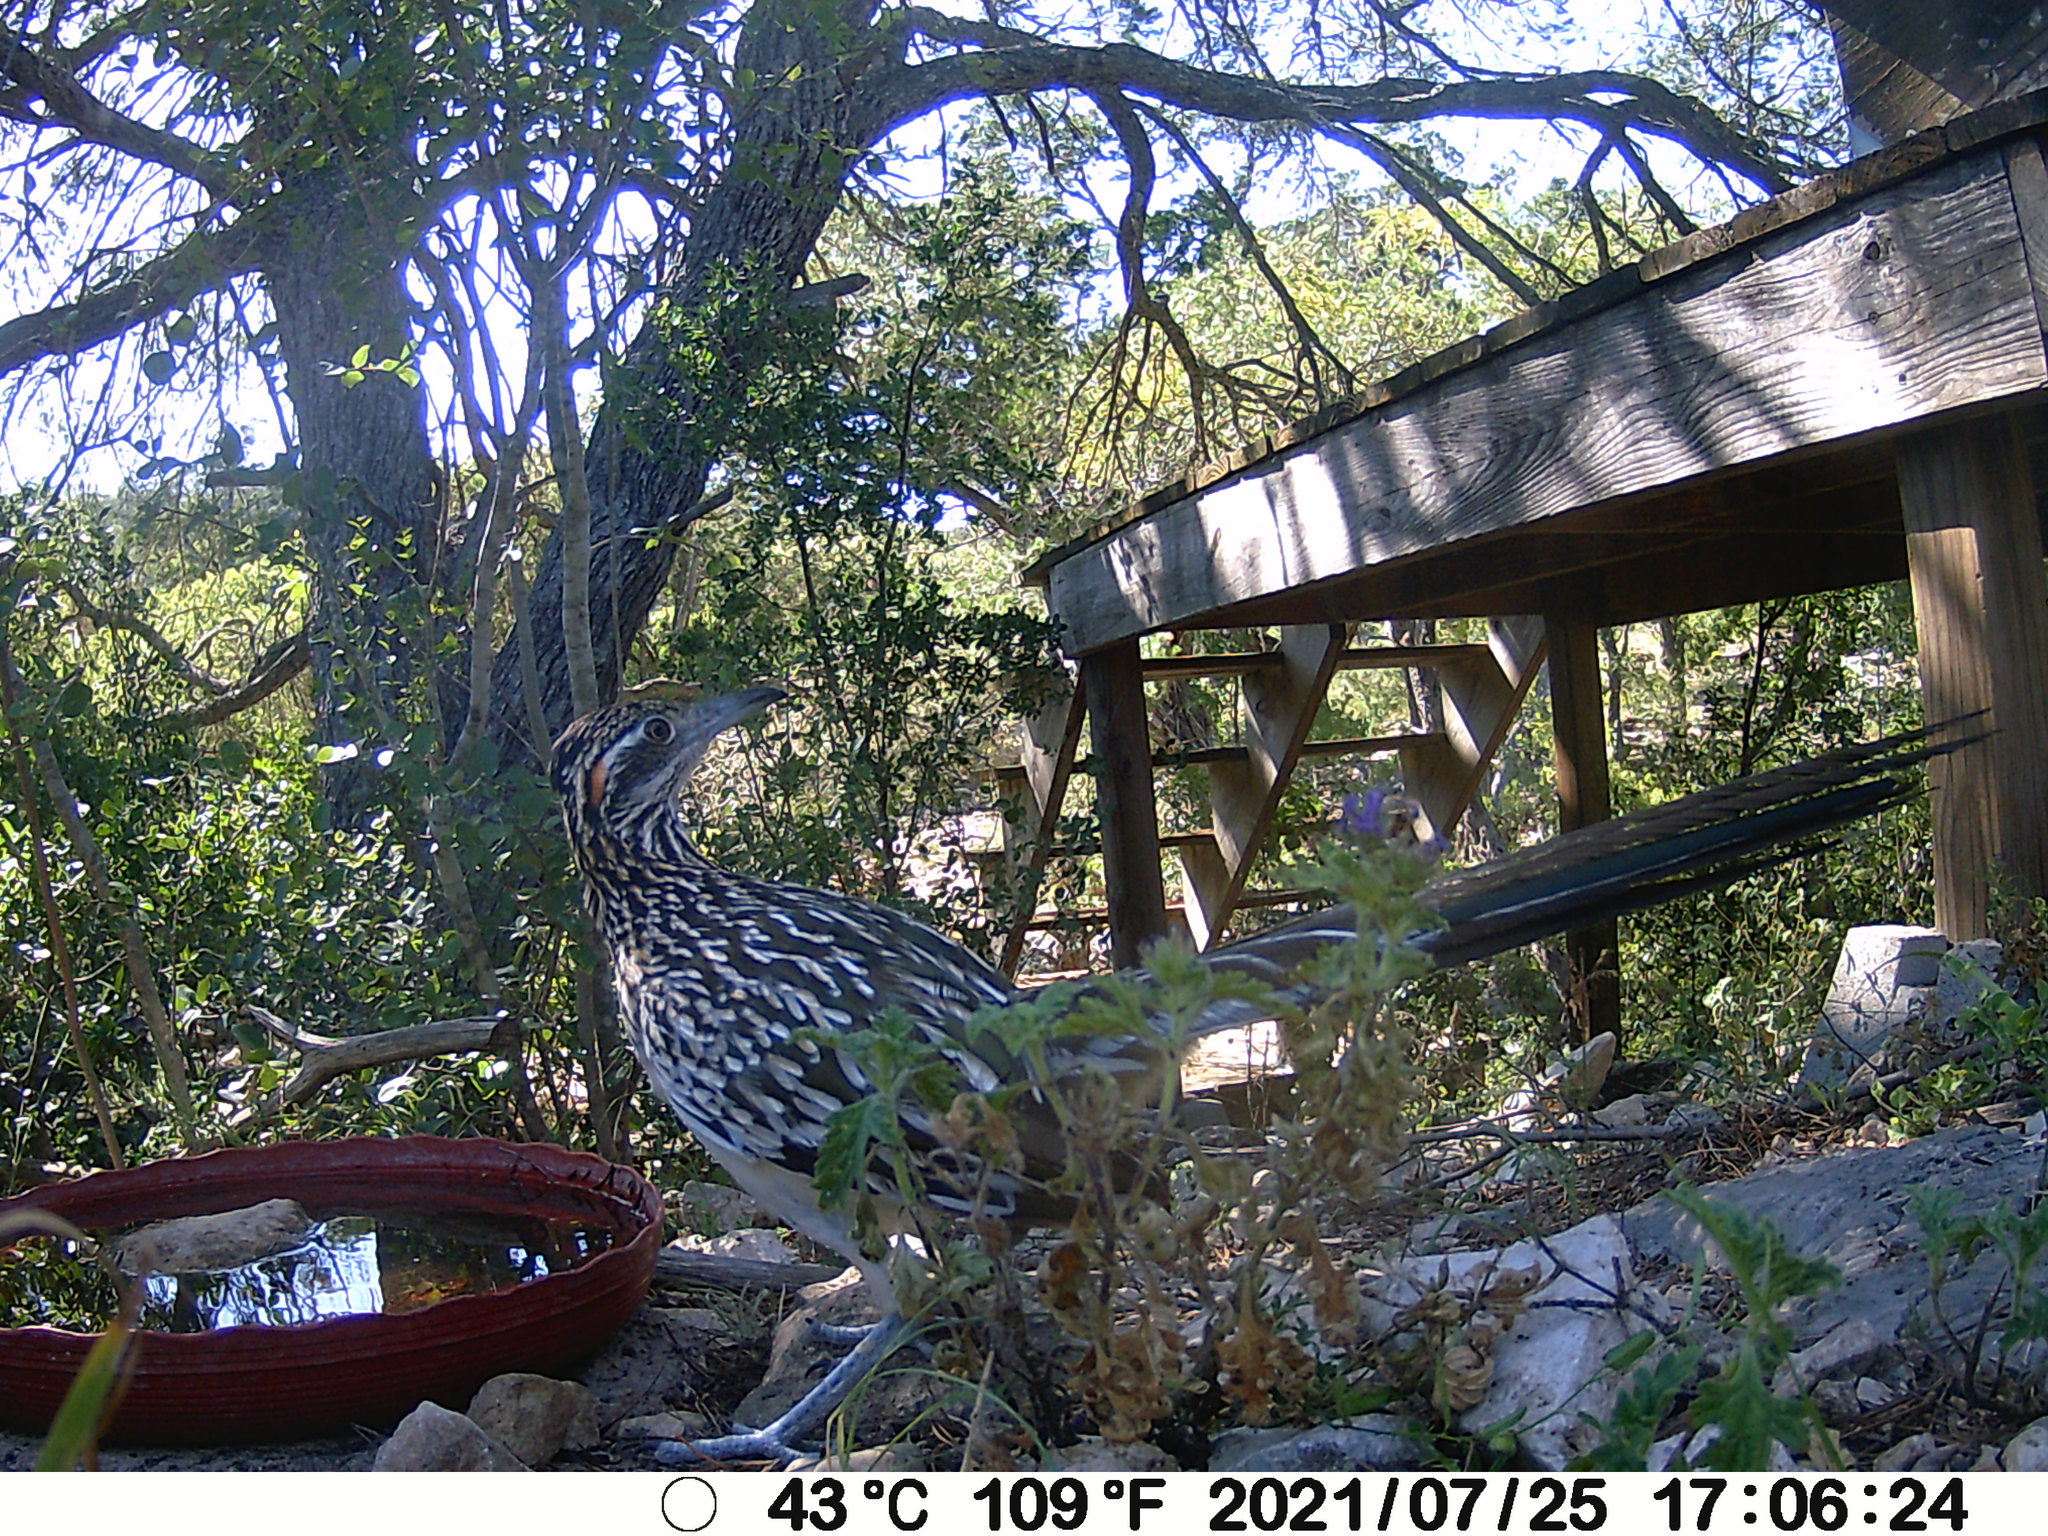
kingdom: Animalia
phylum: Chordata
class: Aves
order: Cuculiformes
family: Cuculidae
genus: Geococcyx
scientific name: Geococcyx californianus
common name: Greater roadrunner
